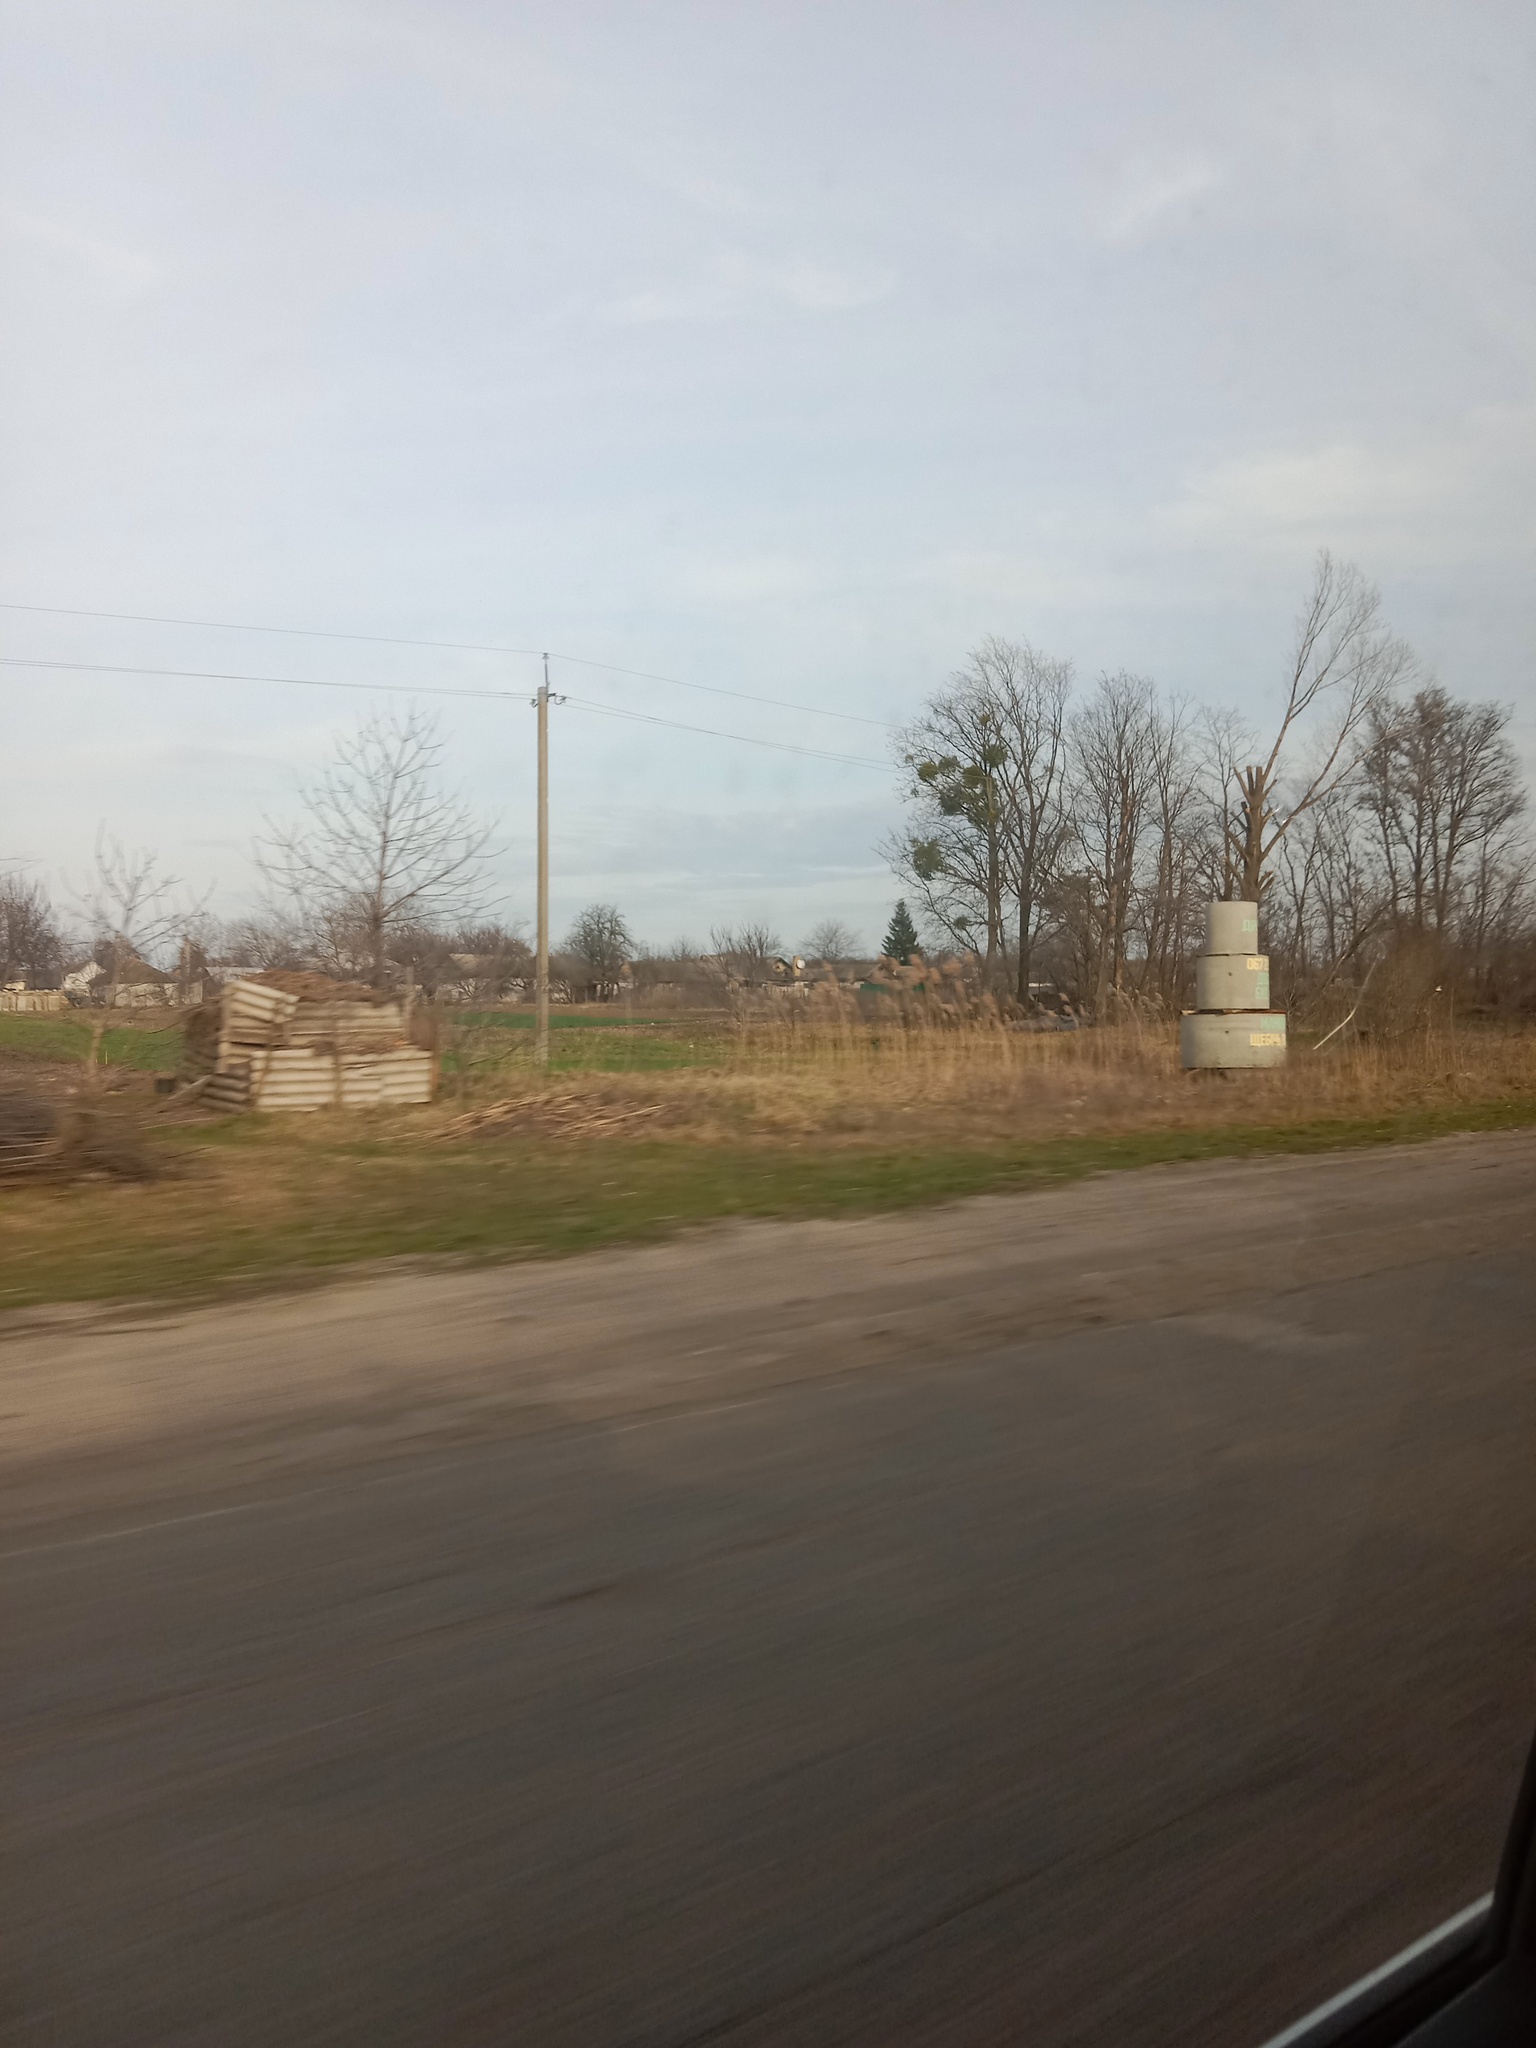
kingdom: Plantae
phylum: Tracheophyta
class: Magnoliopsida
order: Santalales
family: Viscaceae
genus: Viscum
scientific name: Viscum album
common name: Mistletoe
